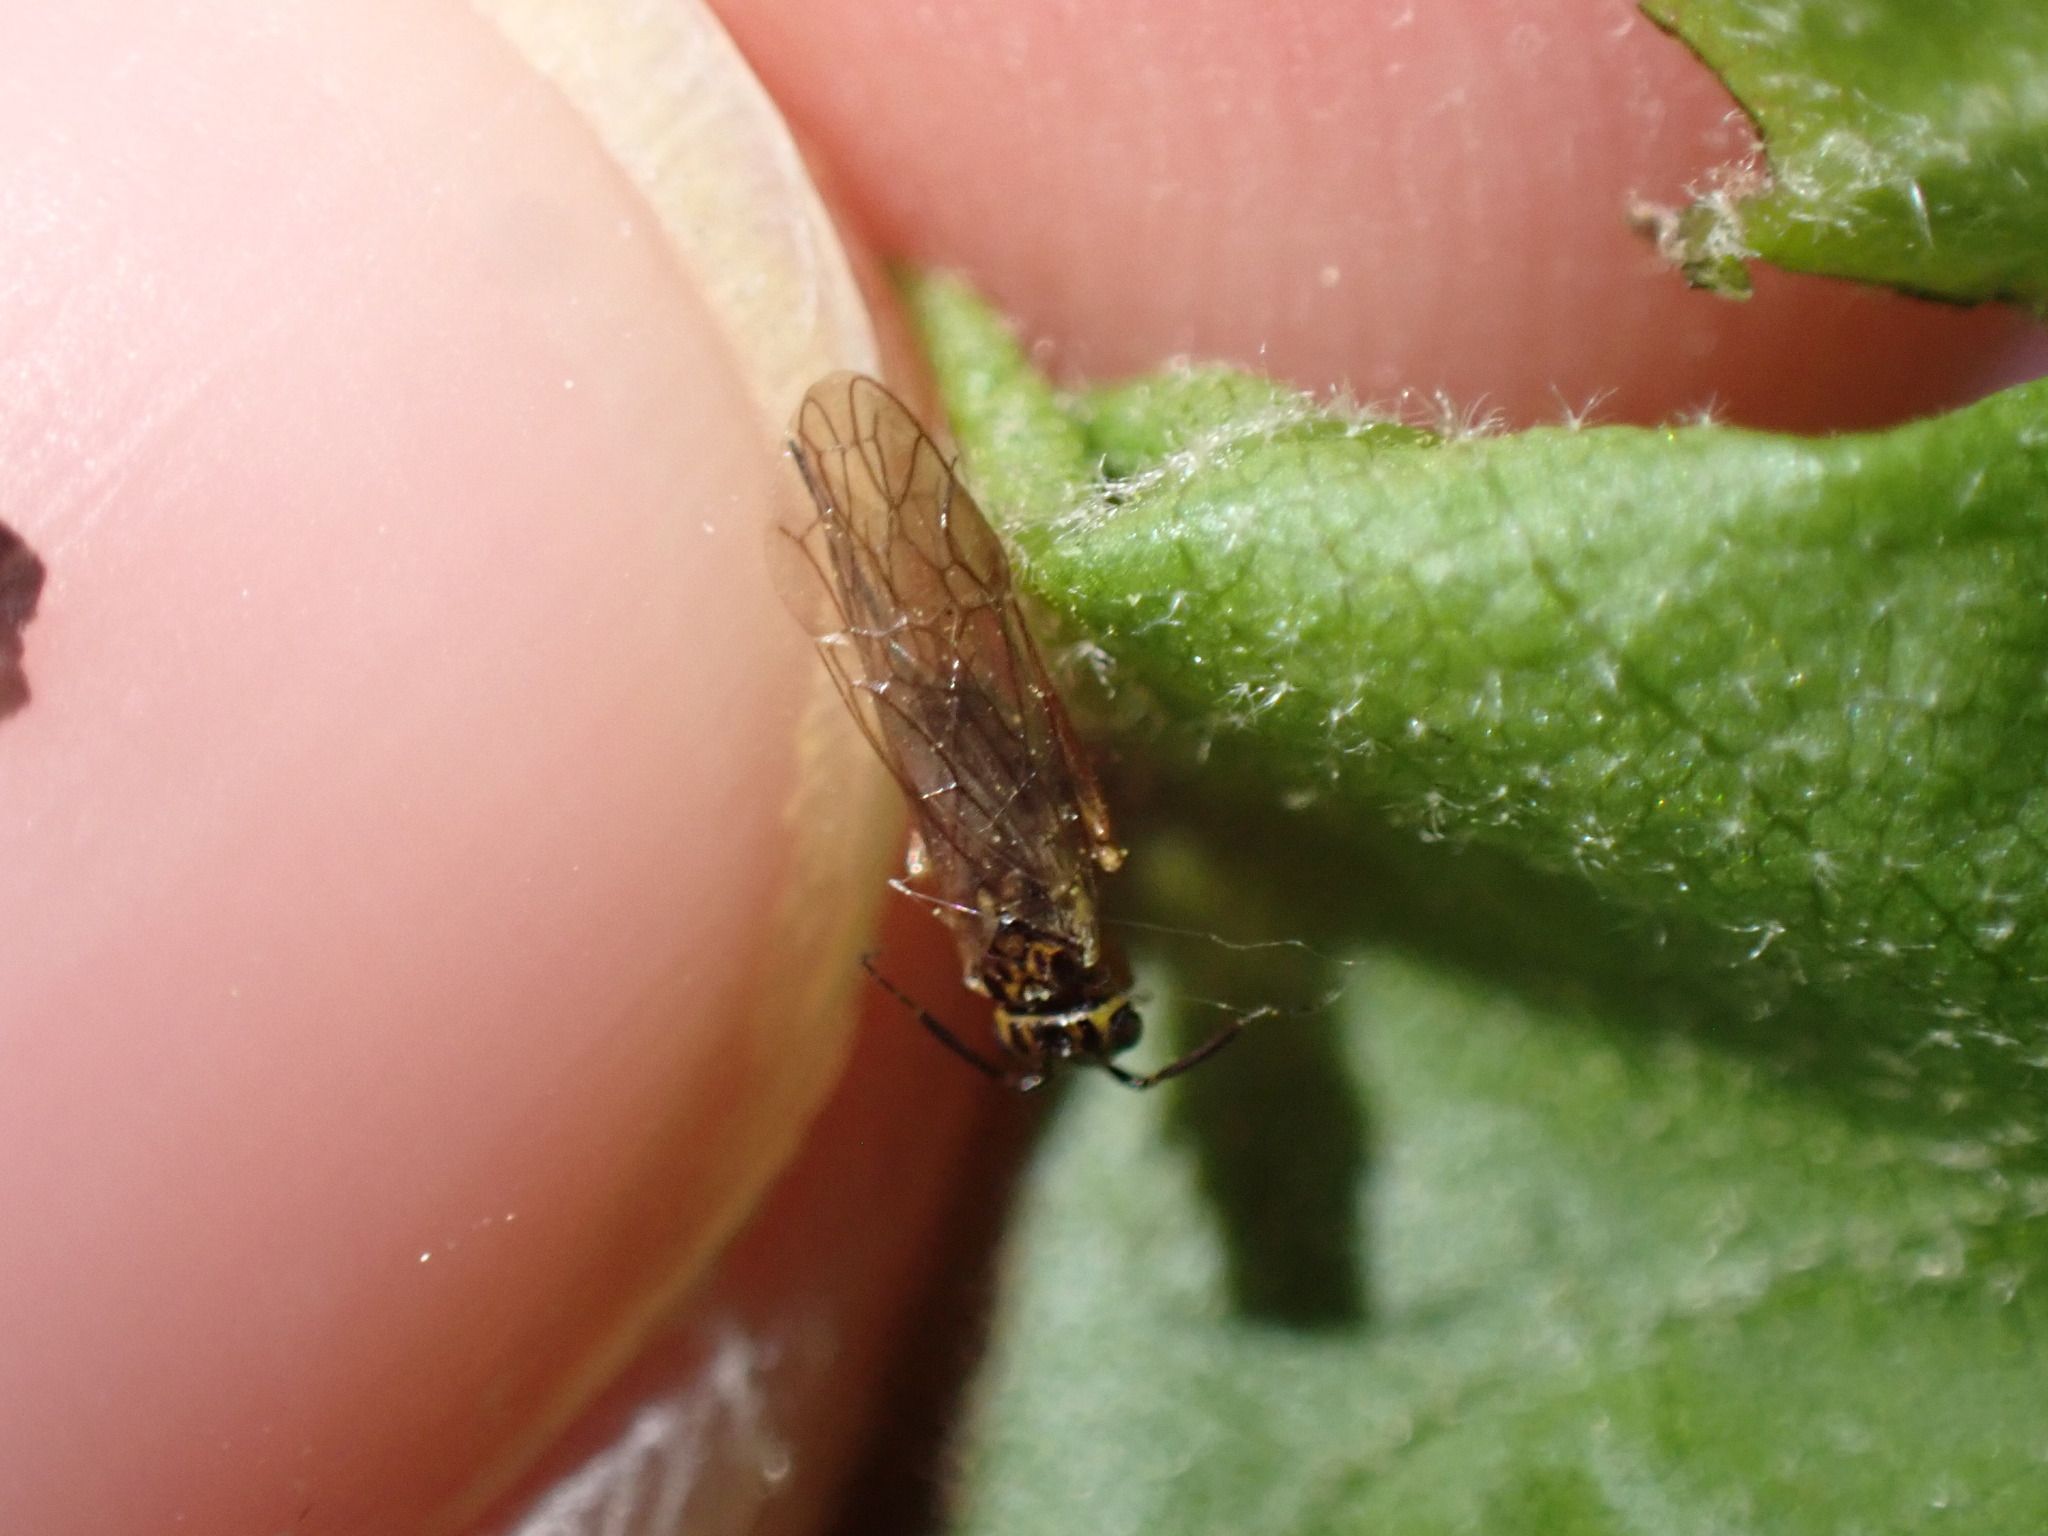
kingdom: Animalia
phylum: Arthropoda
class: Insecta
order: Hymenoptera
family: Xyelidae
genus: Xyela
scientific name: Xyela
